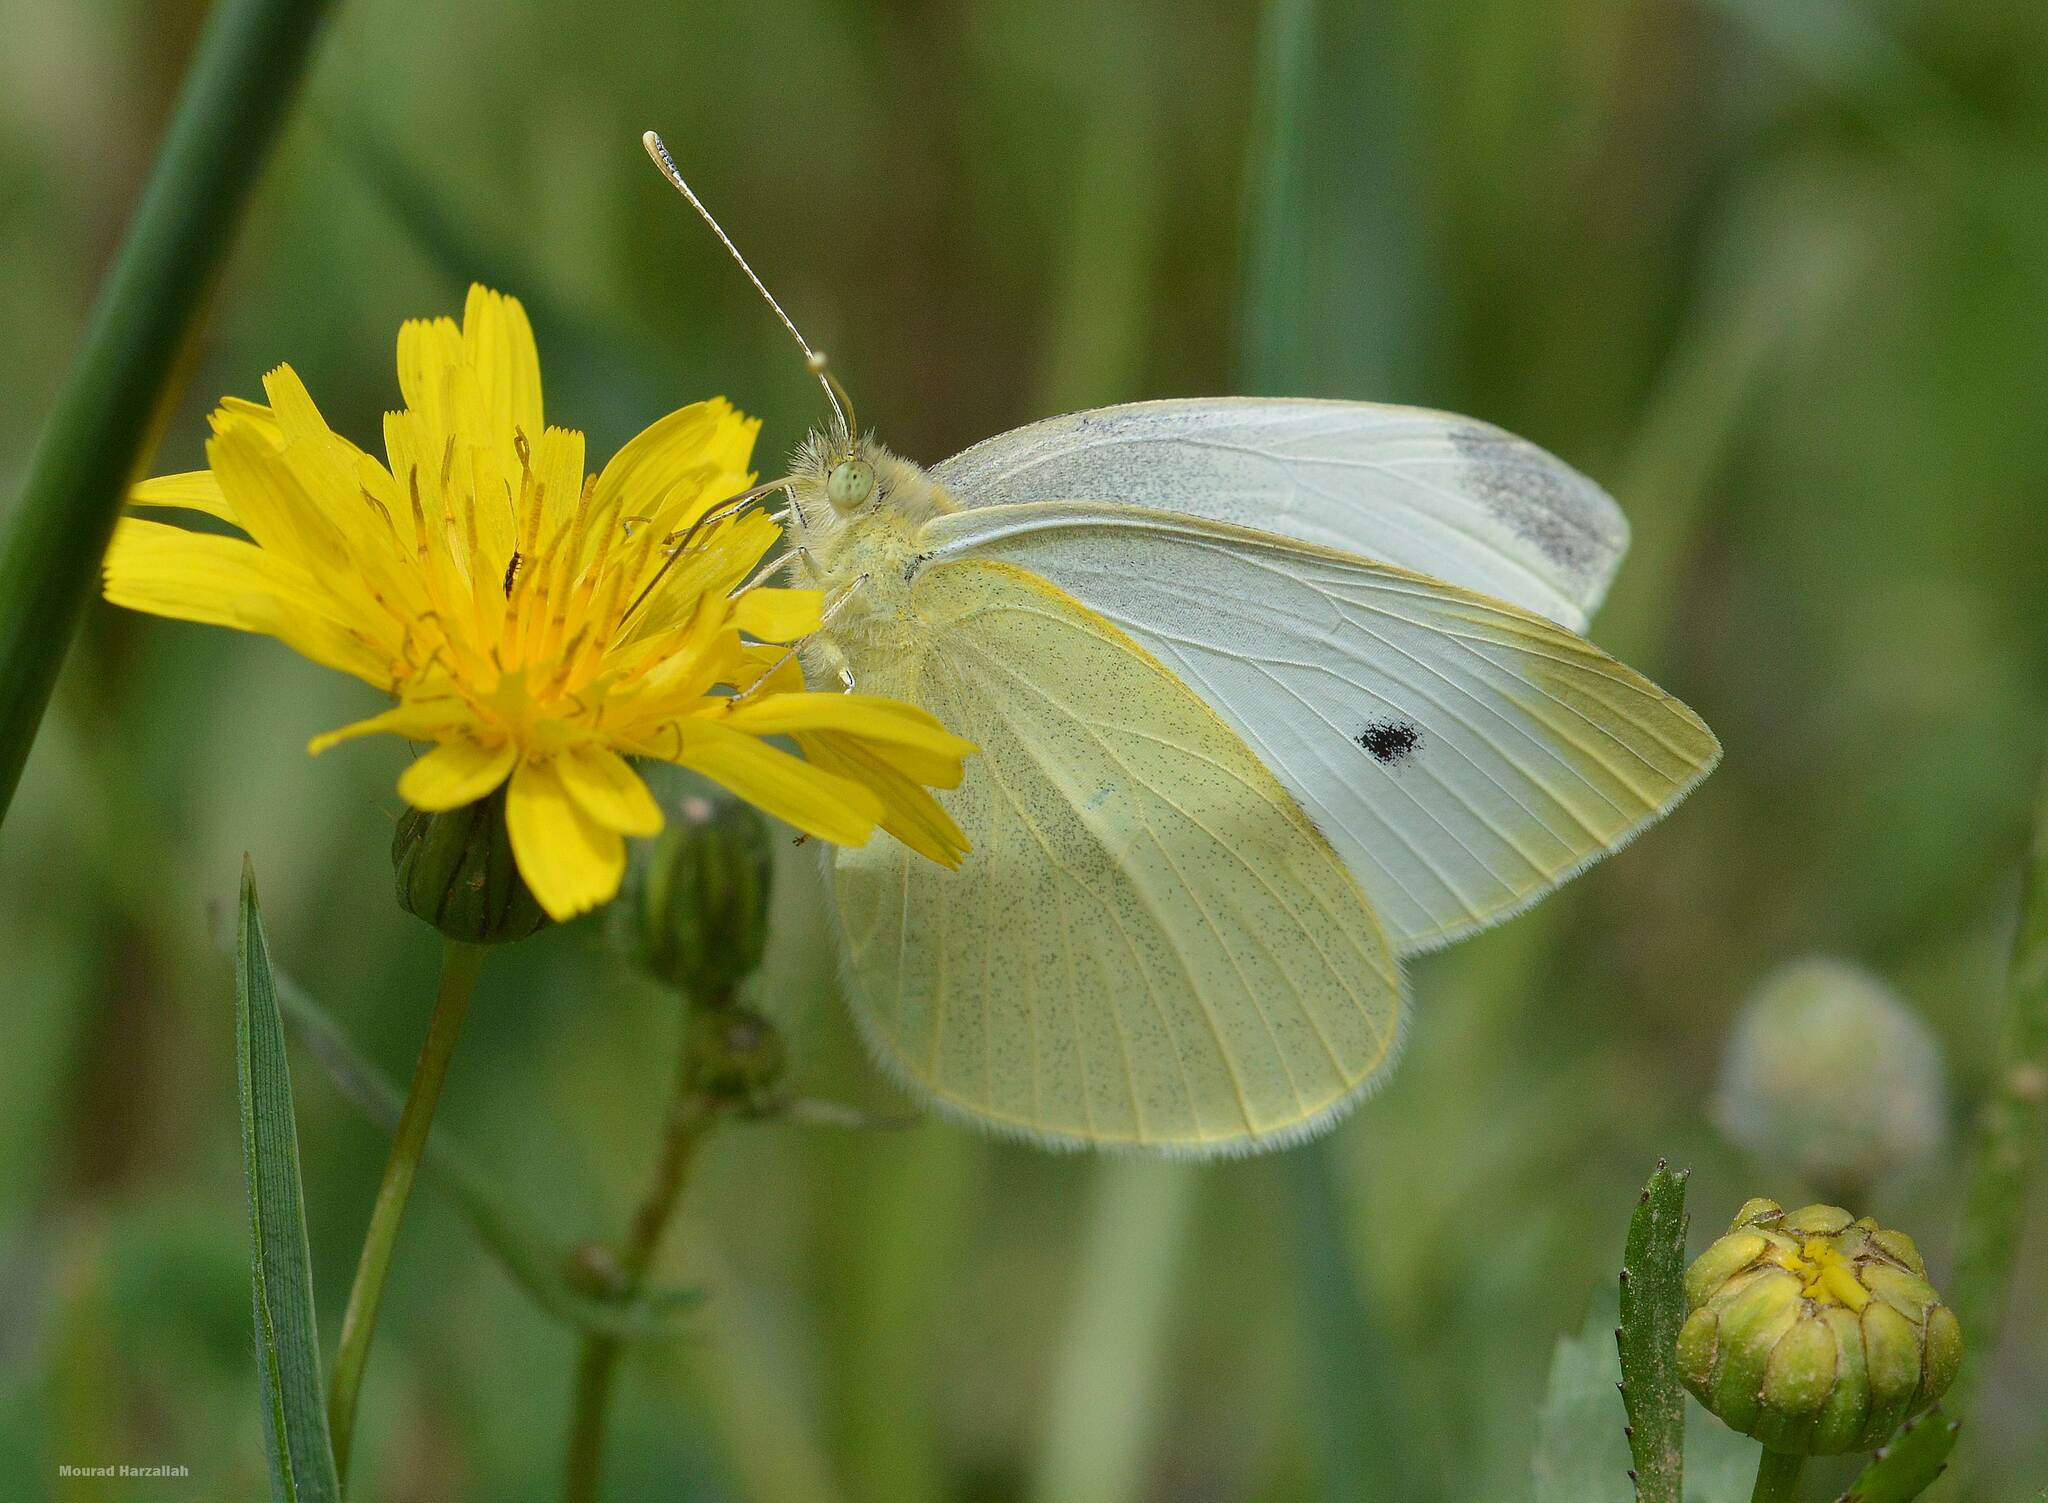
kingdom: Animalia
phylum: Arthropoda
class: Insecta
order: Lepidoptera
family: Pieridae
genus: Pieris
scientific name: Pieris rapae
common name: Small white
